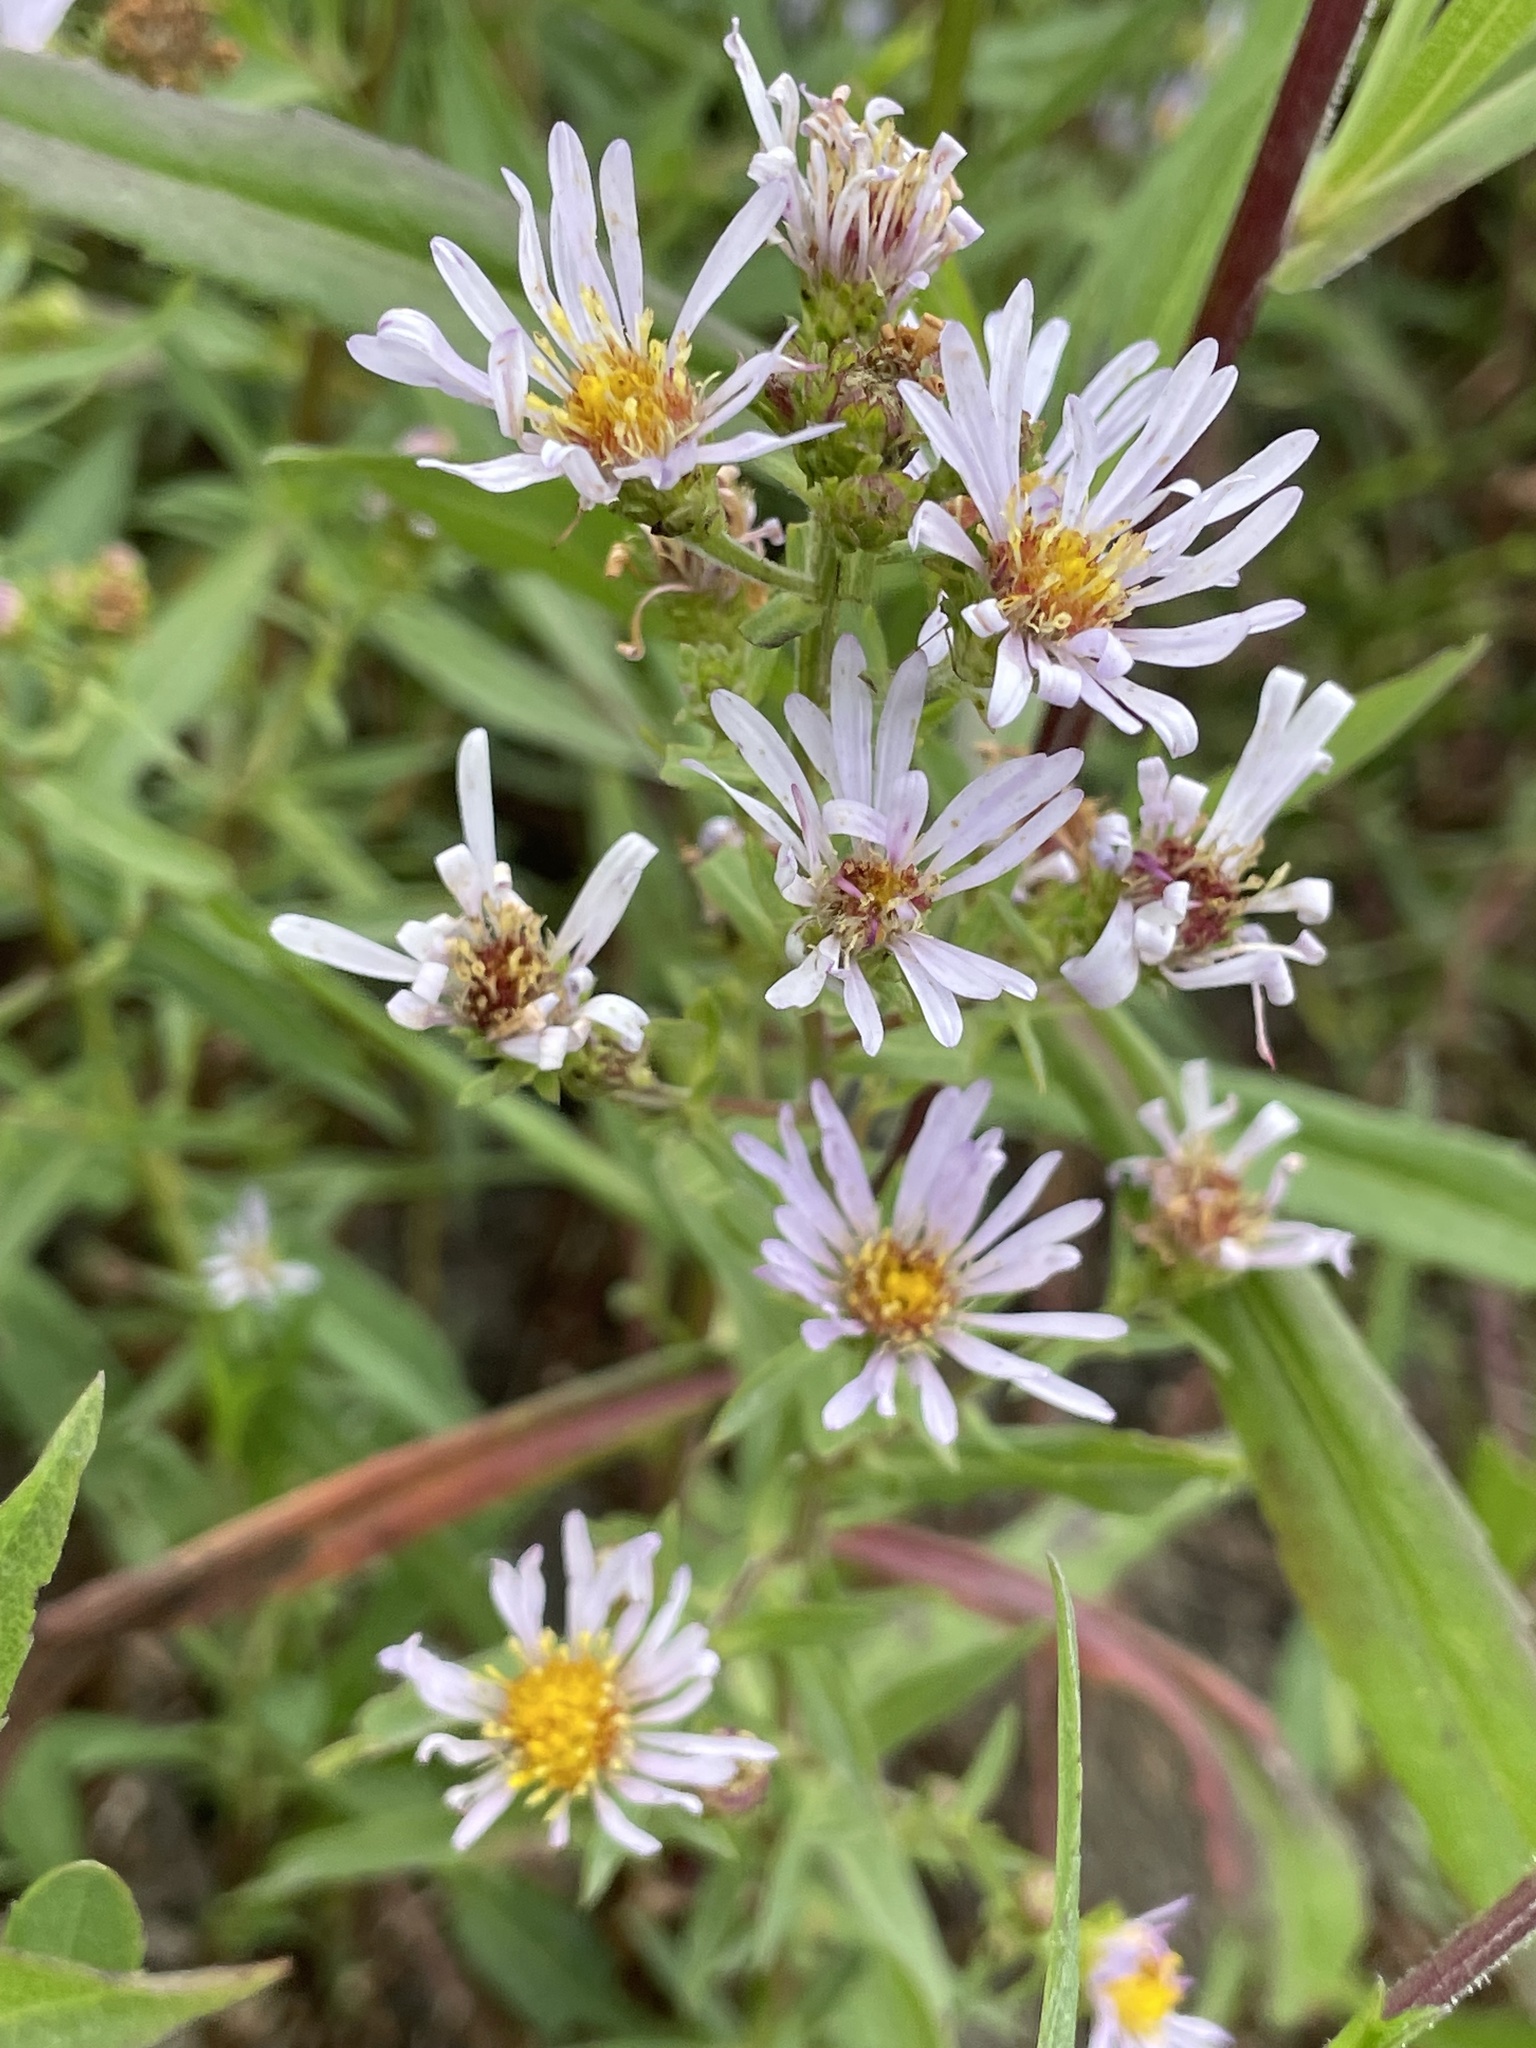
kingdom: Plantae
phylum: Tracheophyta
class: Magnoliopsida
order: Asterales
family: Asteraceae
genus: Symphyotrichum
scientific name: Symphyotrichum chilense
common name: Pacific aster
